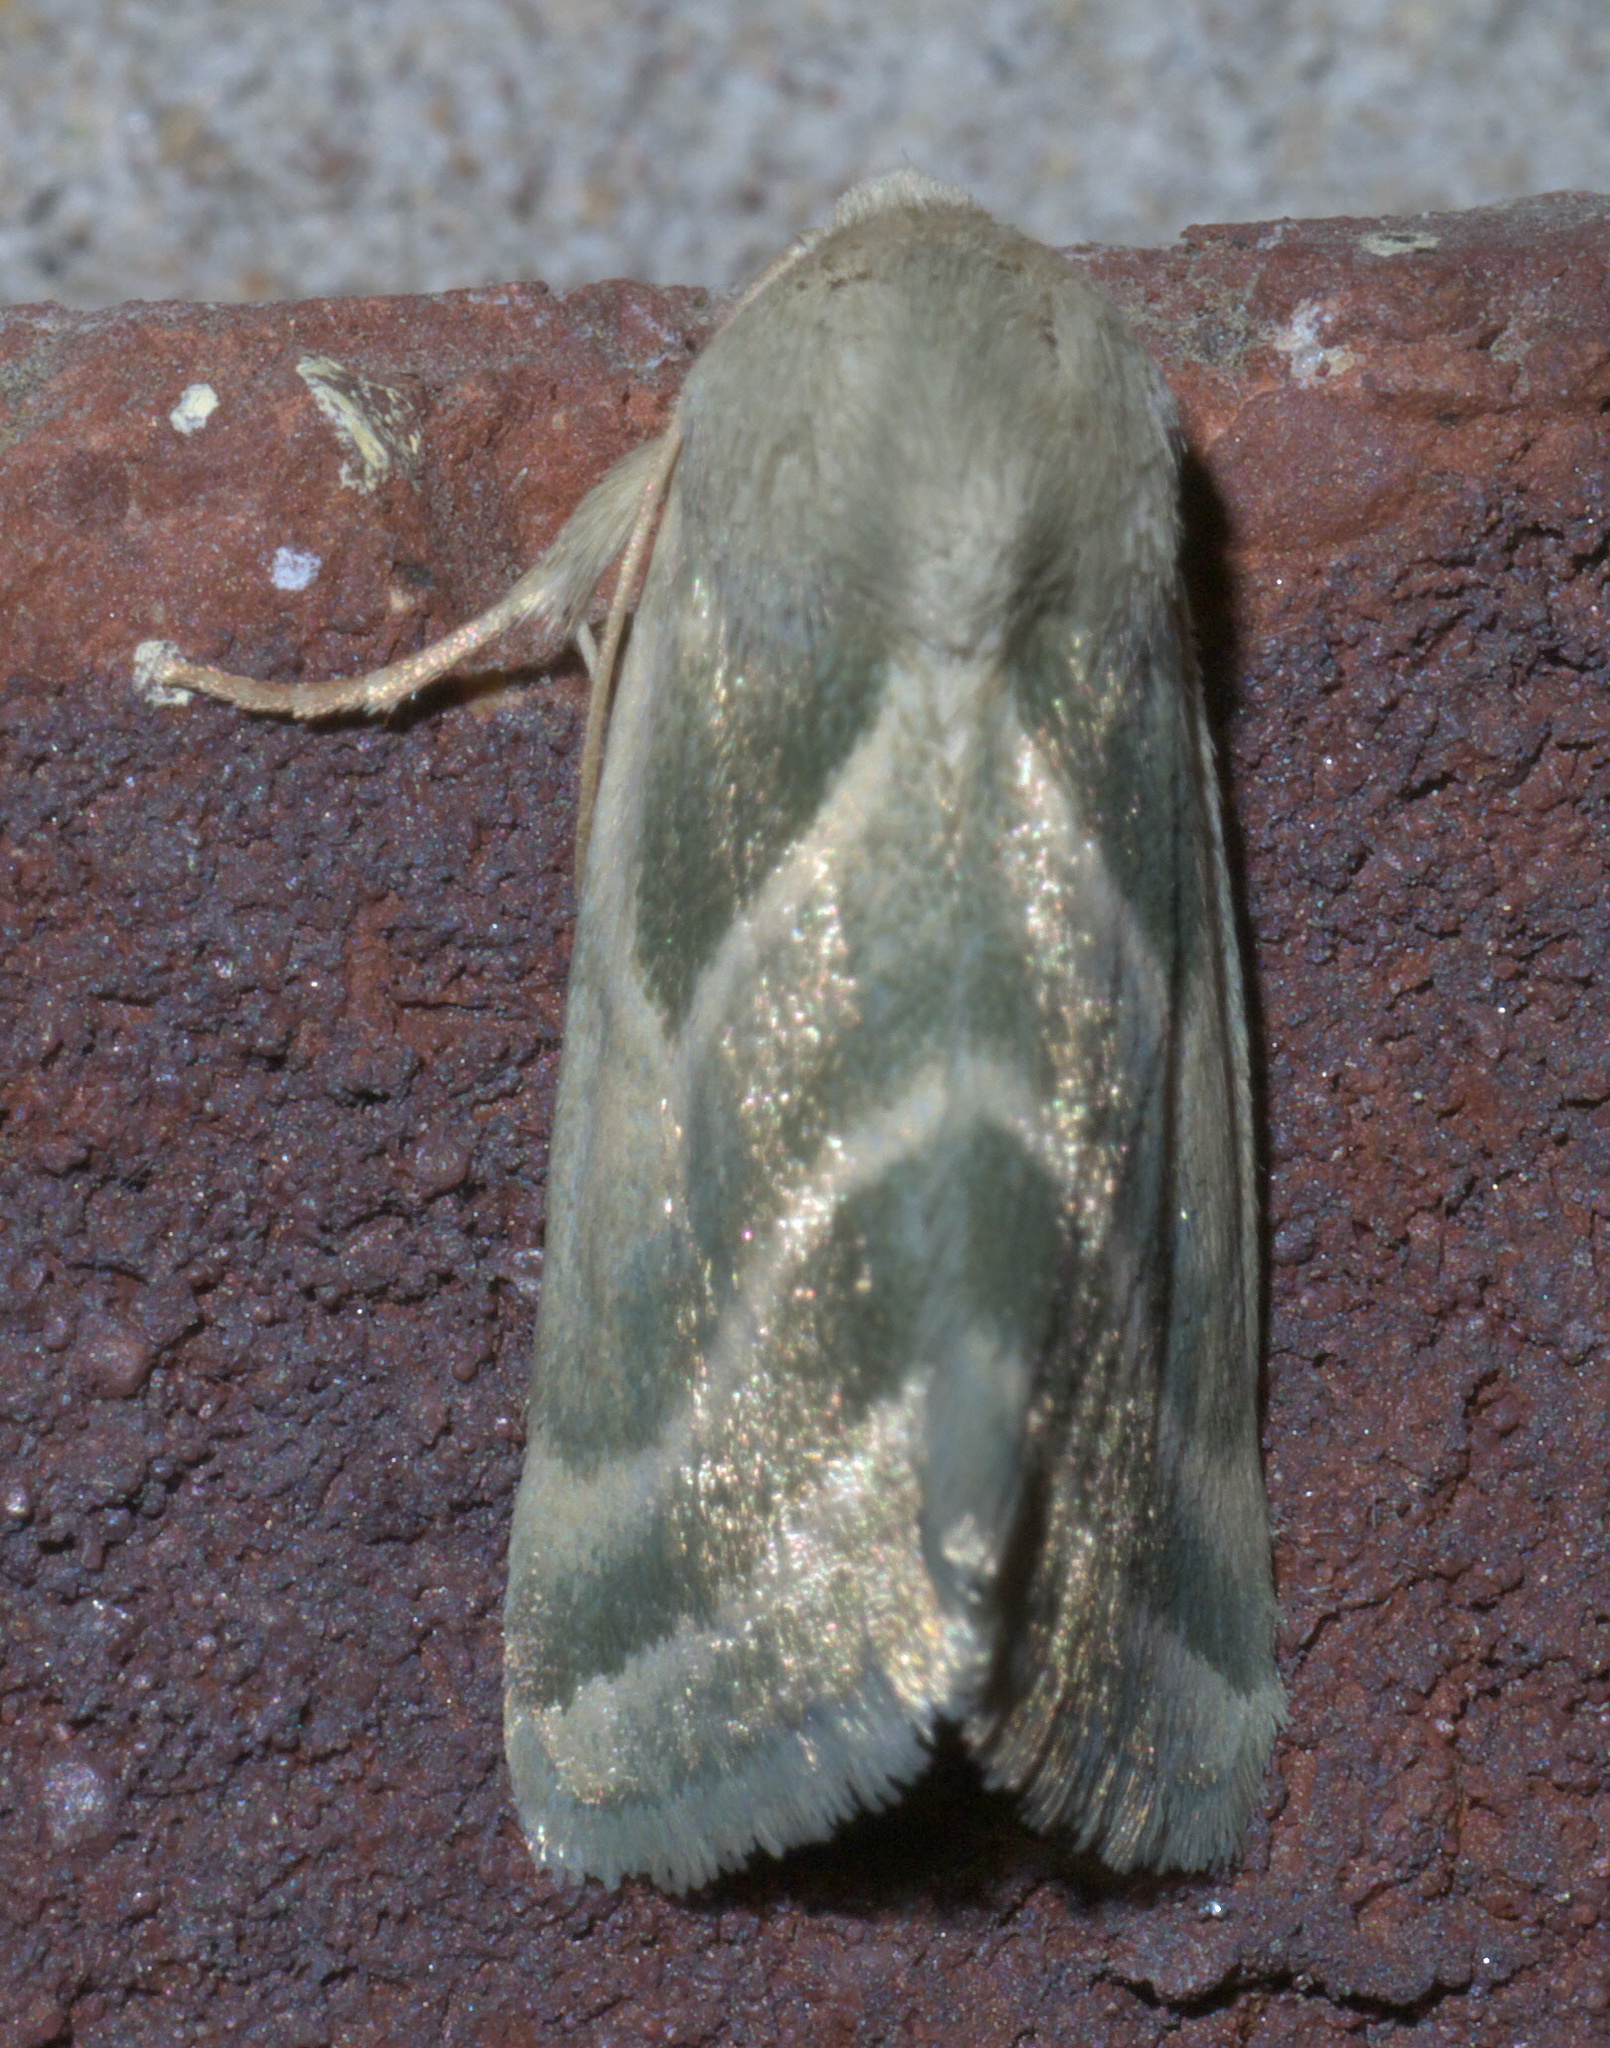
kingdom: Animalia
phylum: Arthropoda
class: Insecta
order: Lepidoptera
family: Noctuidae
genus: Schinia
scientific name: Schinia trifascia
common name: Three-lined flower moth
